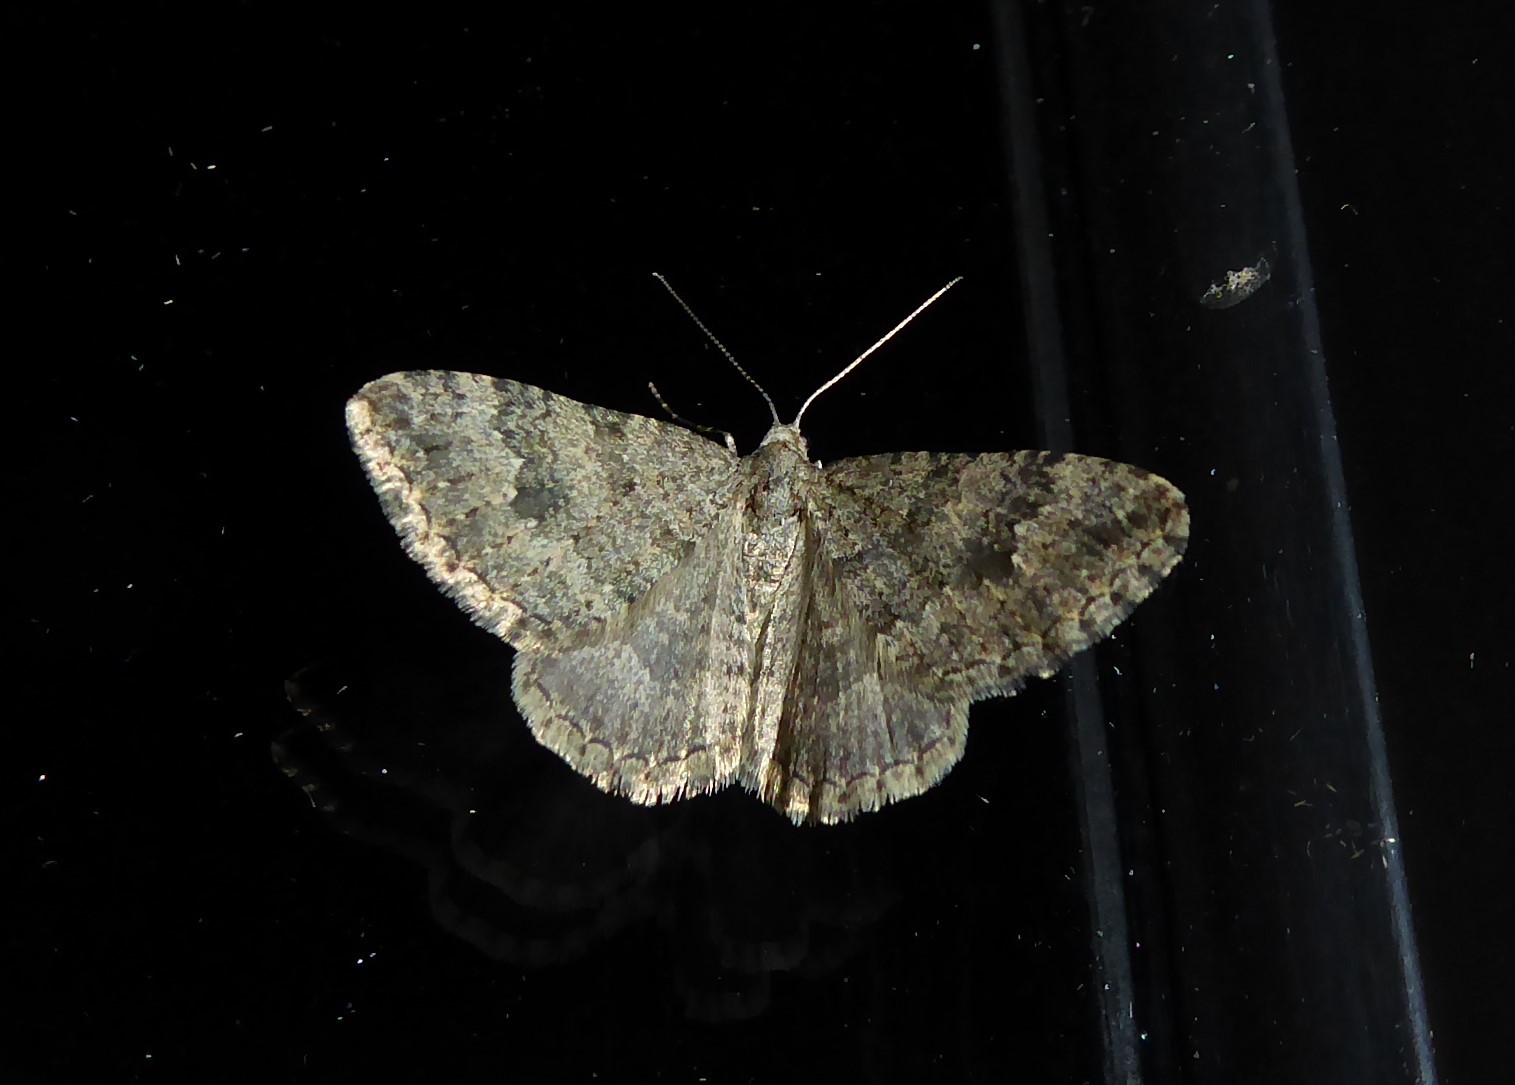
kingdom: Animalia
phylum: Arthropoda
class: Insecta
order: Lepidoptera
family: Geometridae
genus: Helastia
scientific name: Helastia corcularia
